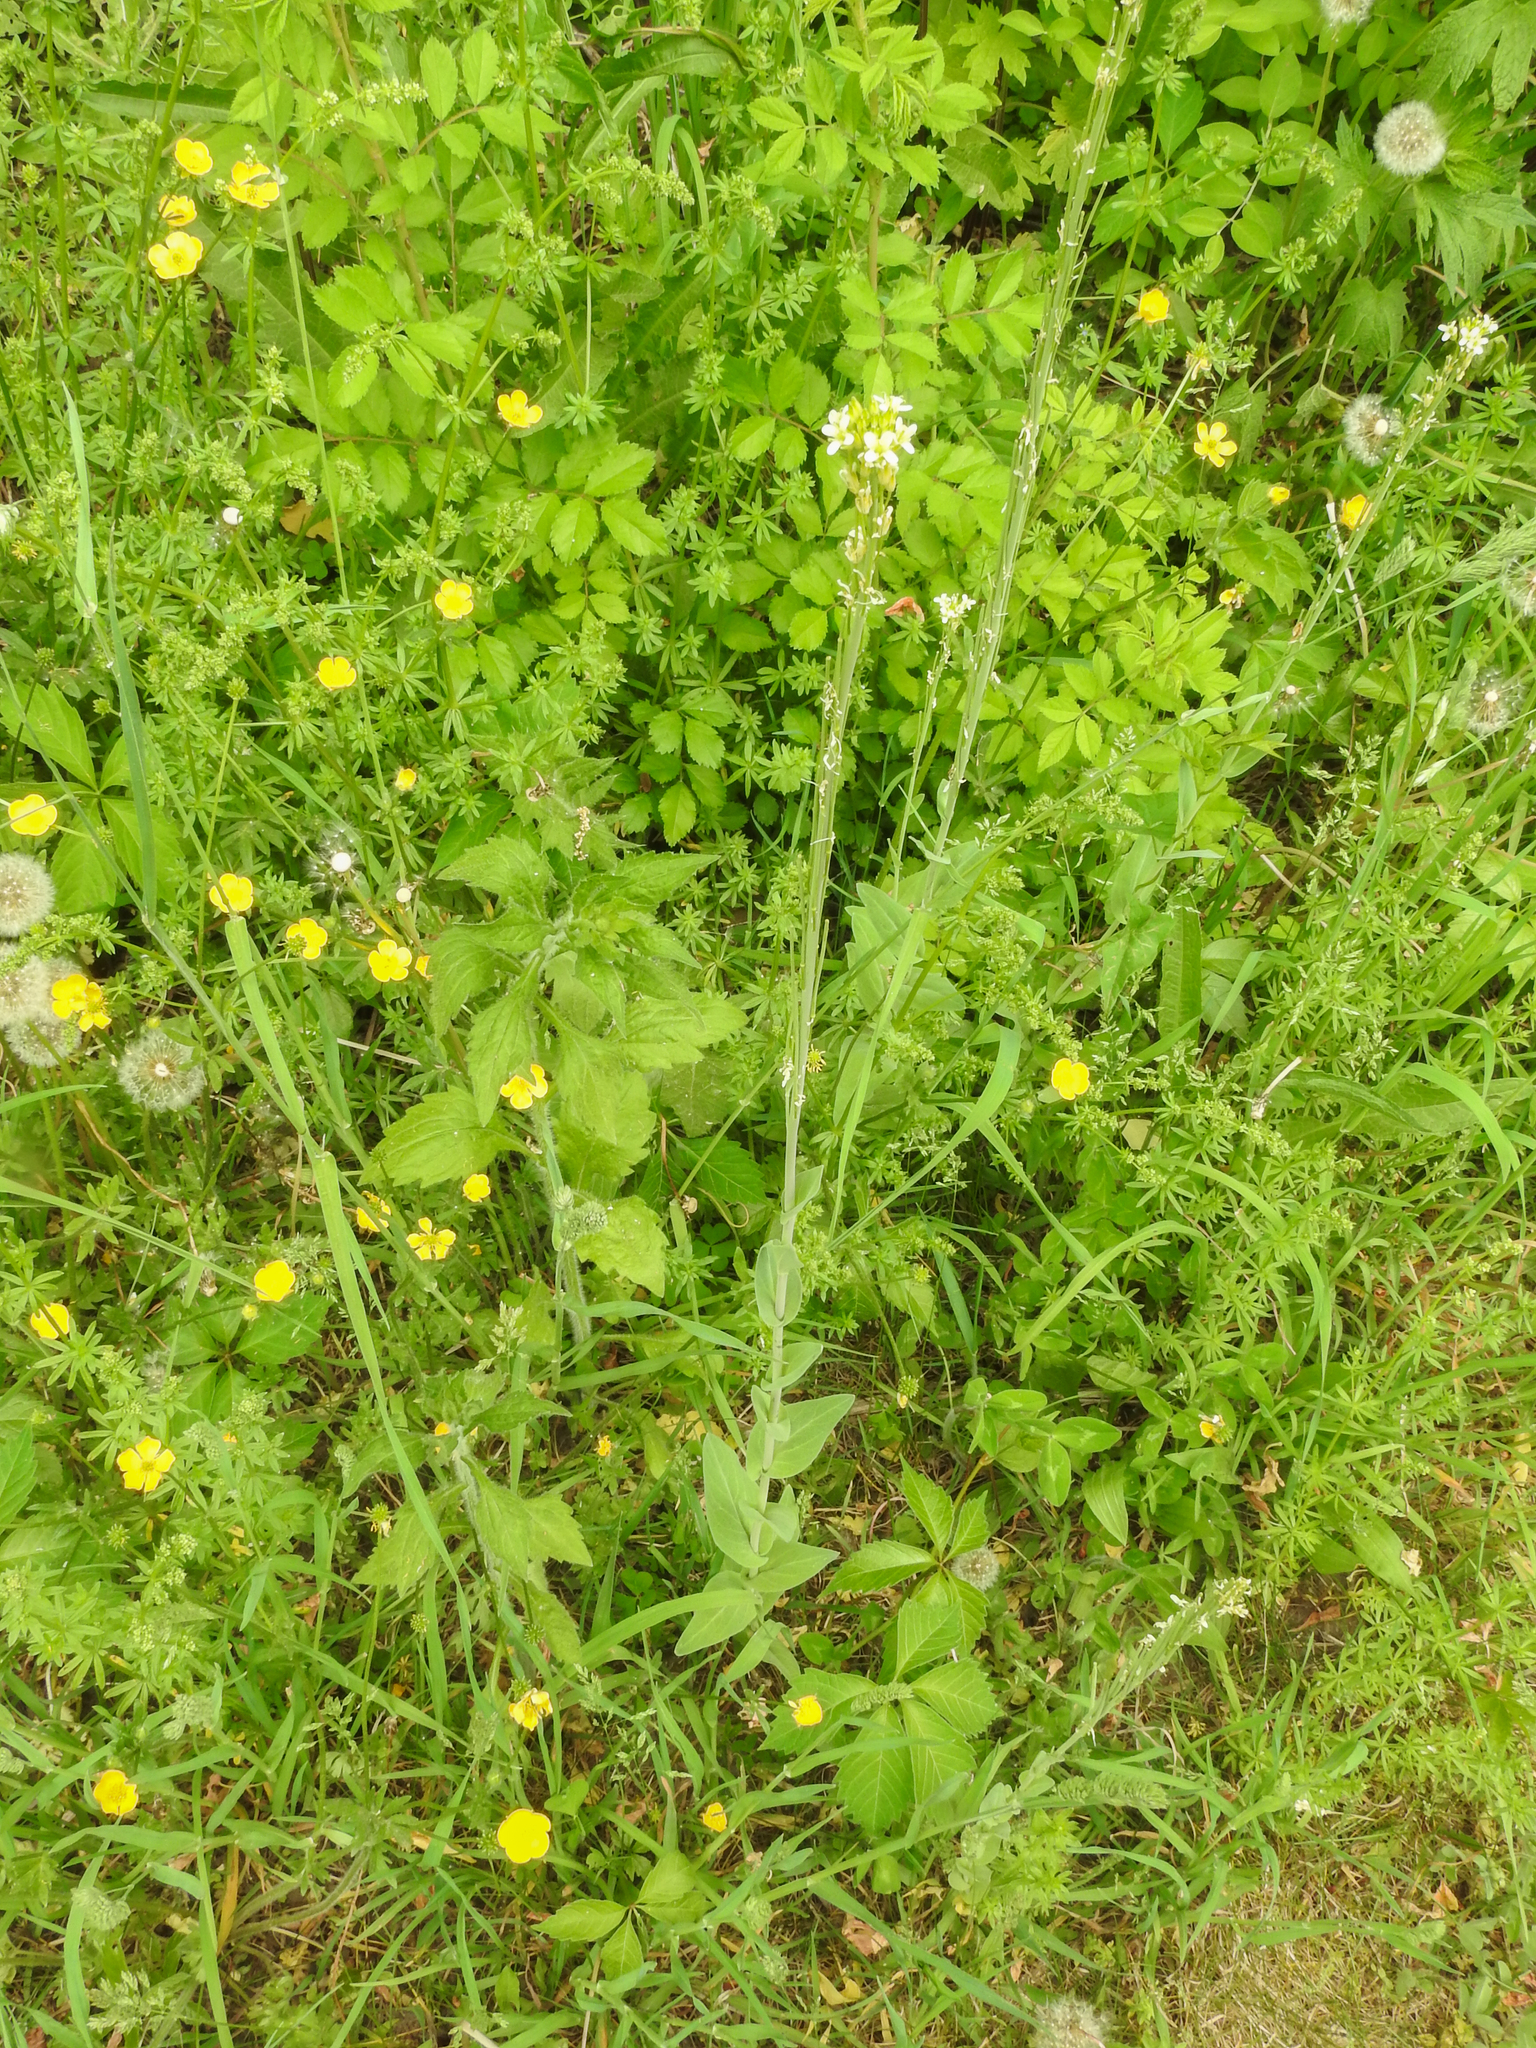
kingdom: Plantae
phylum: Tracheophyta
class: Magnoliopsida
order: Brassicales
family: Brassicaceae
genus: Turritis
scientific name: Turritis glabra
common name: Tower rockcress
